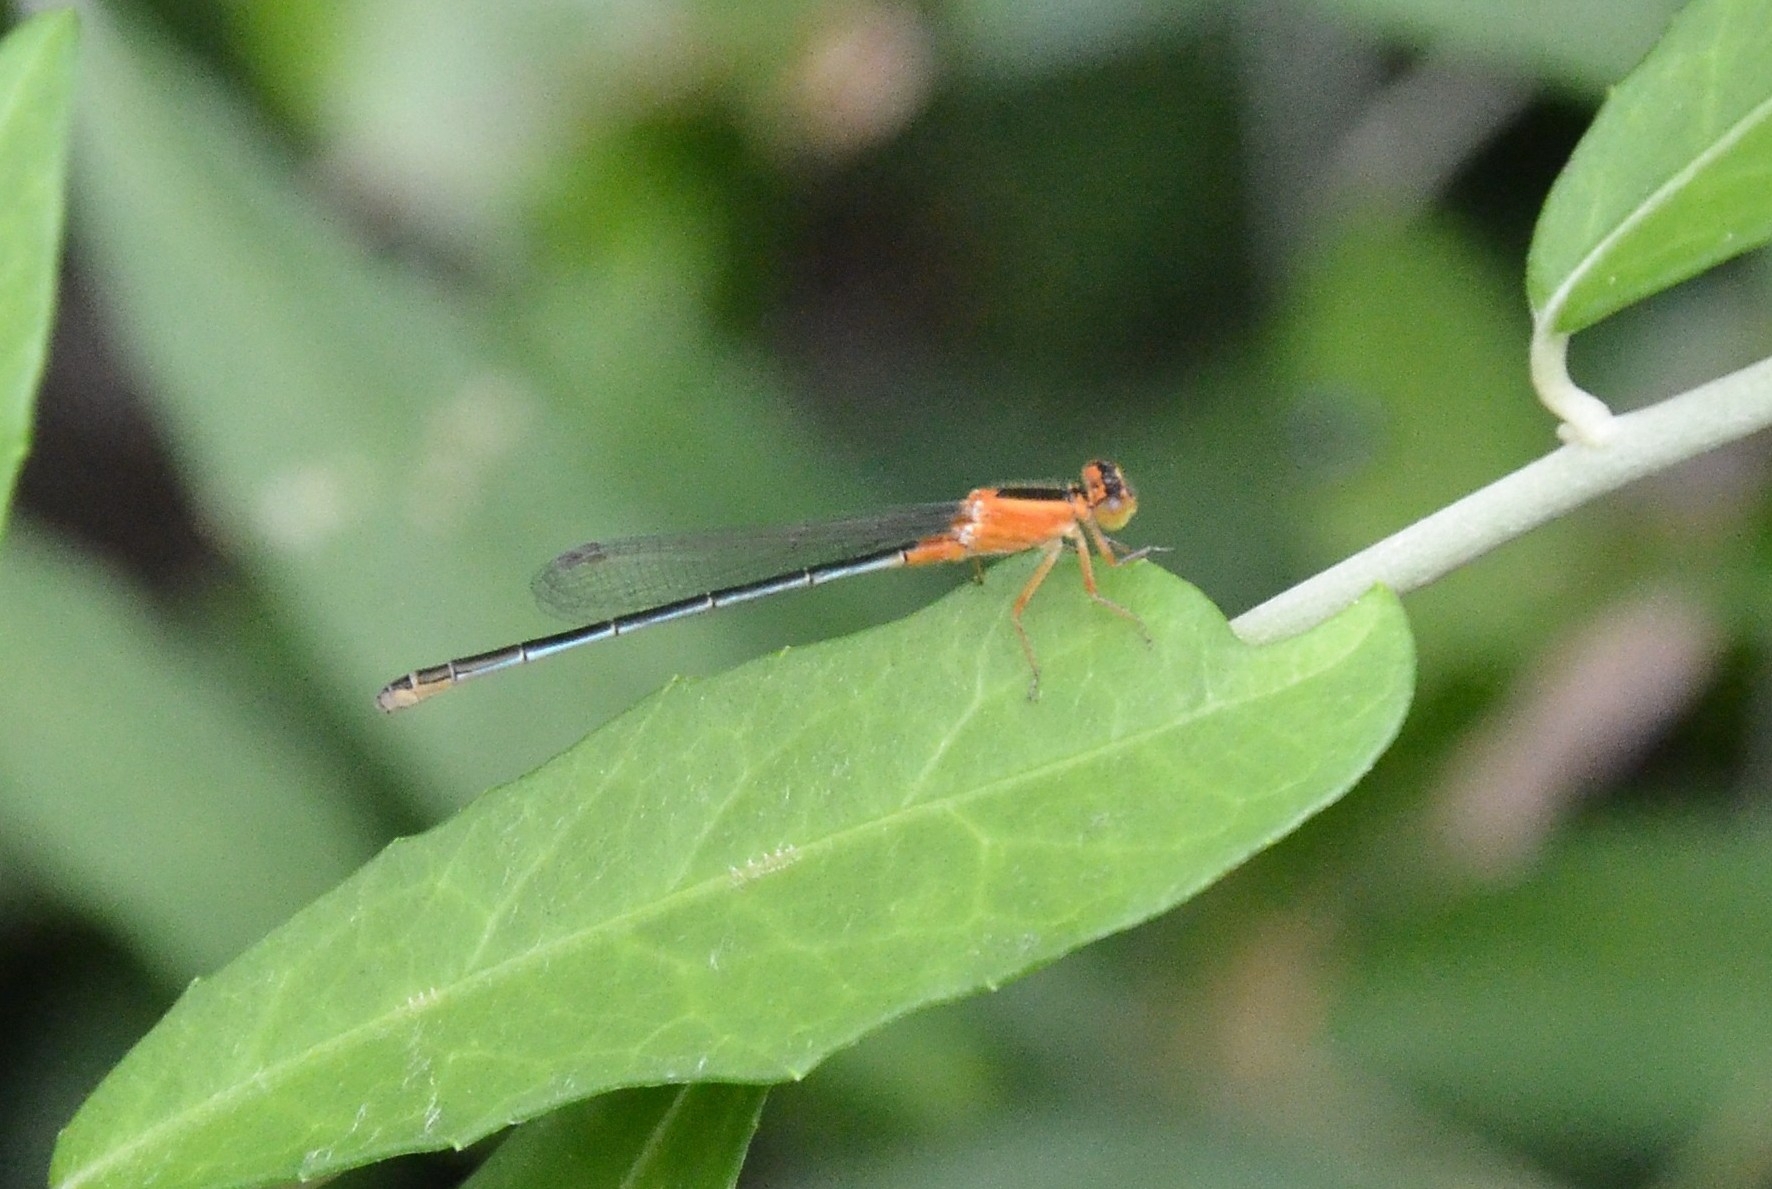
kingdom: Animalia
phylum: Arthropoda
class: Insecta
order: Odonata
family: Coenagrionidae
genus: Ischnura
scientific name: Ischnura senegalensis
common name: Tropical bluetail
